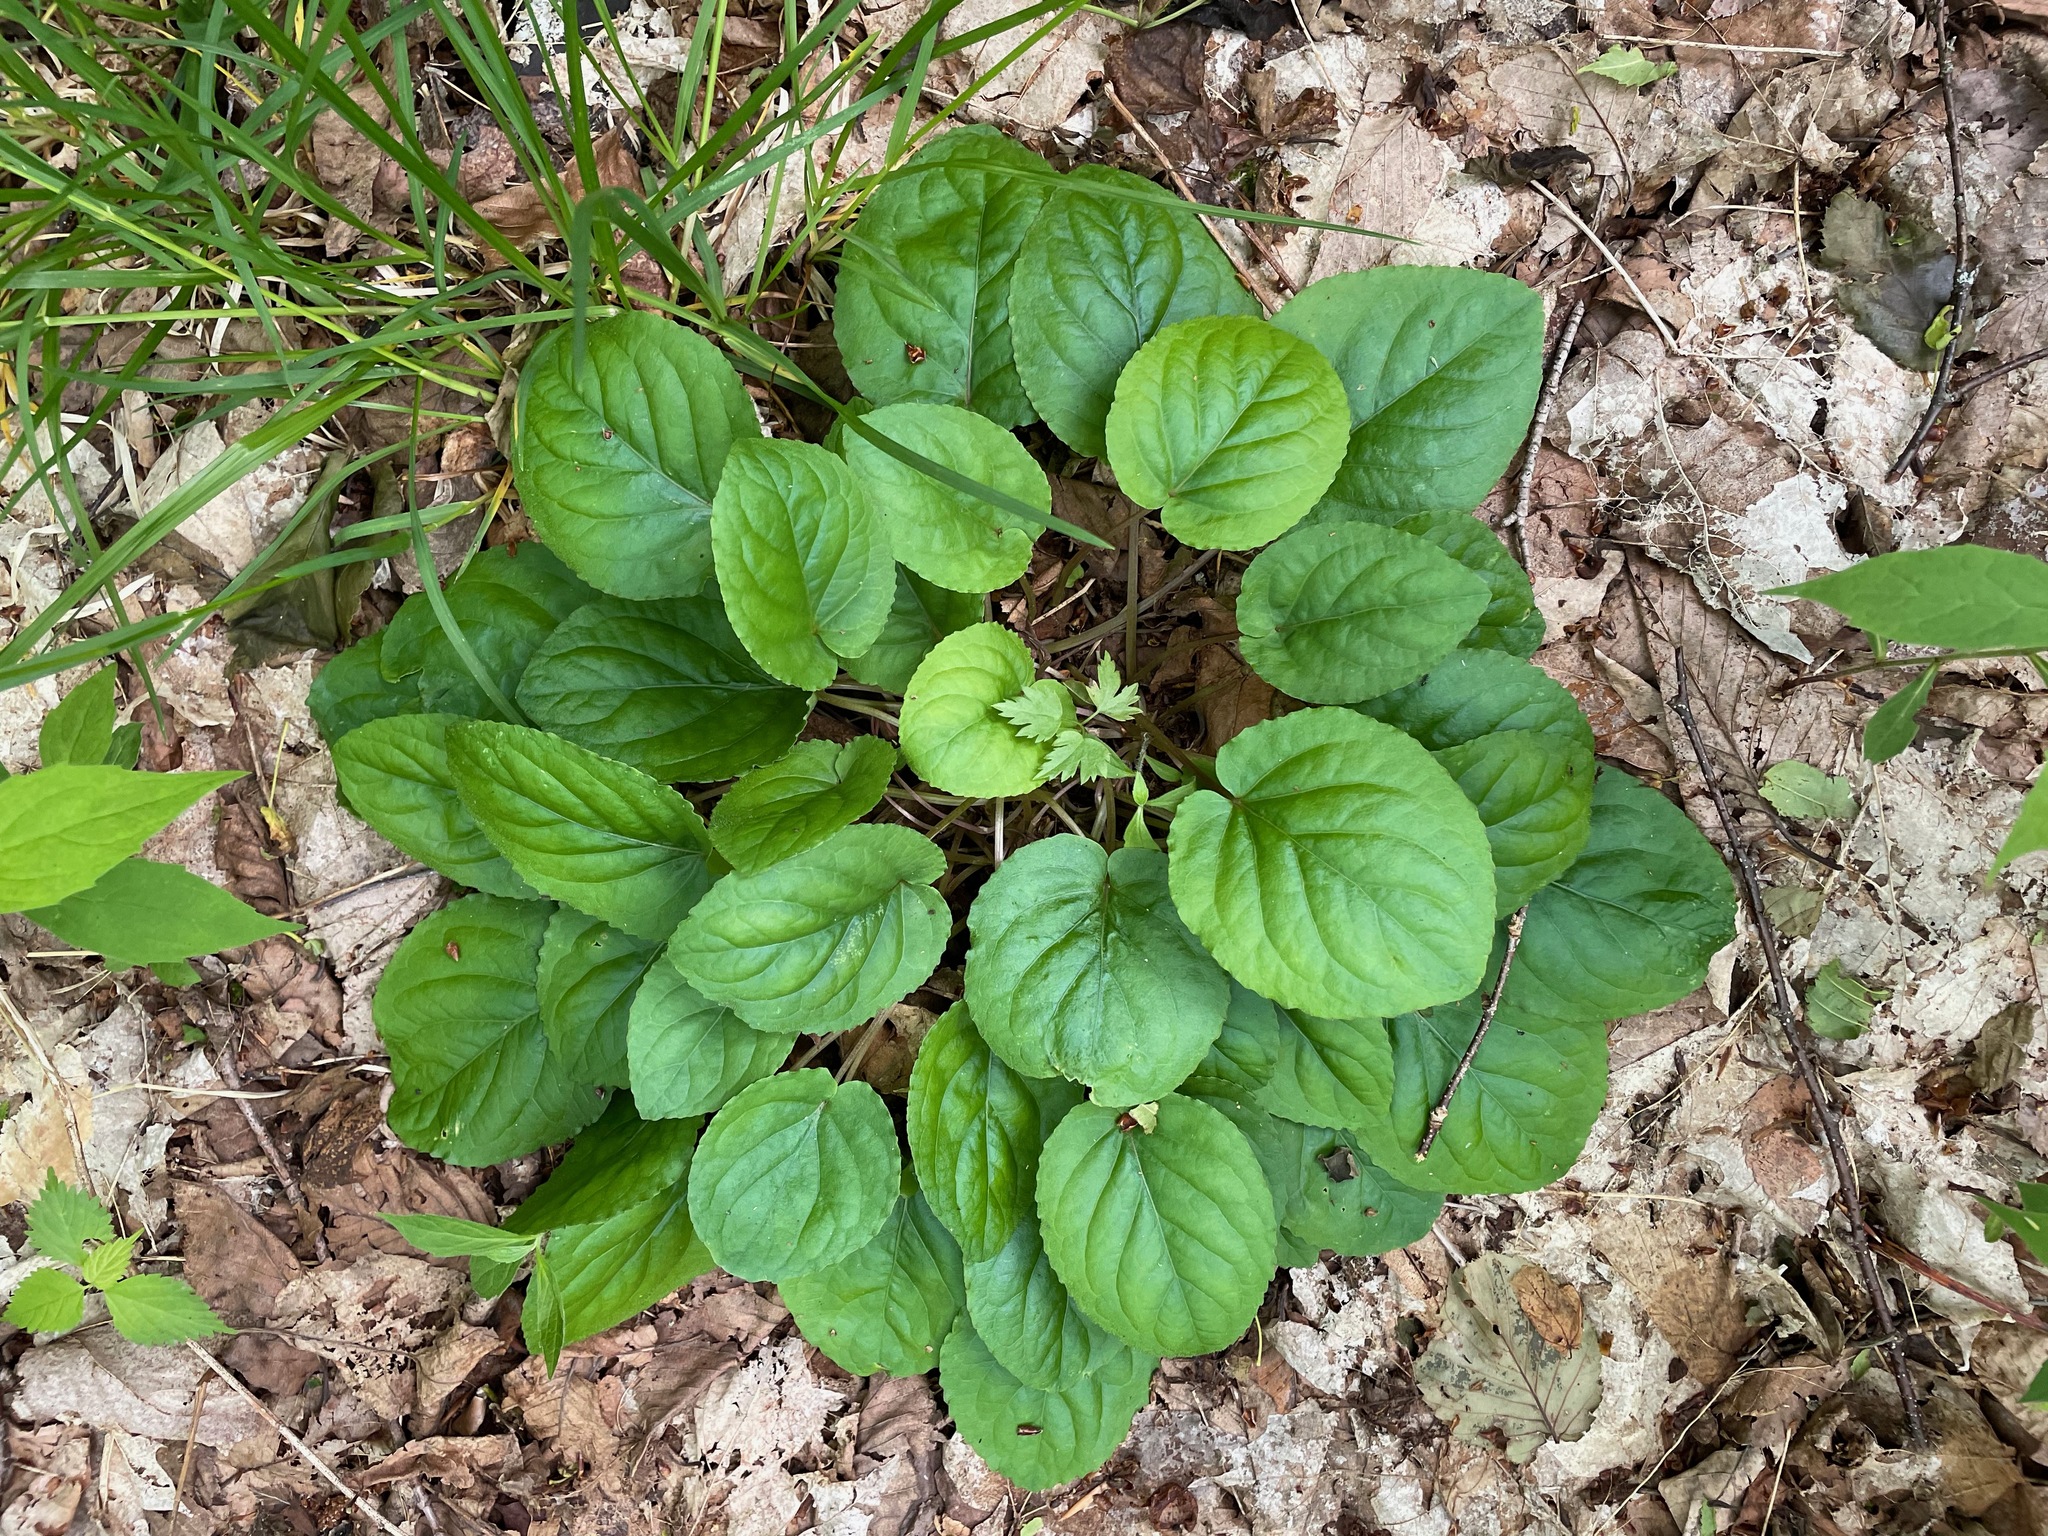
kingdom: Plantae
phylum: Tracheophyta
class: Magnoliopsida
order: Malpighiales
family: Violaceae
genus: Viola
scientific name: Viola rotundifolia
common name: Early yellow violet
